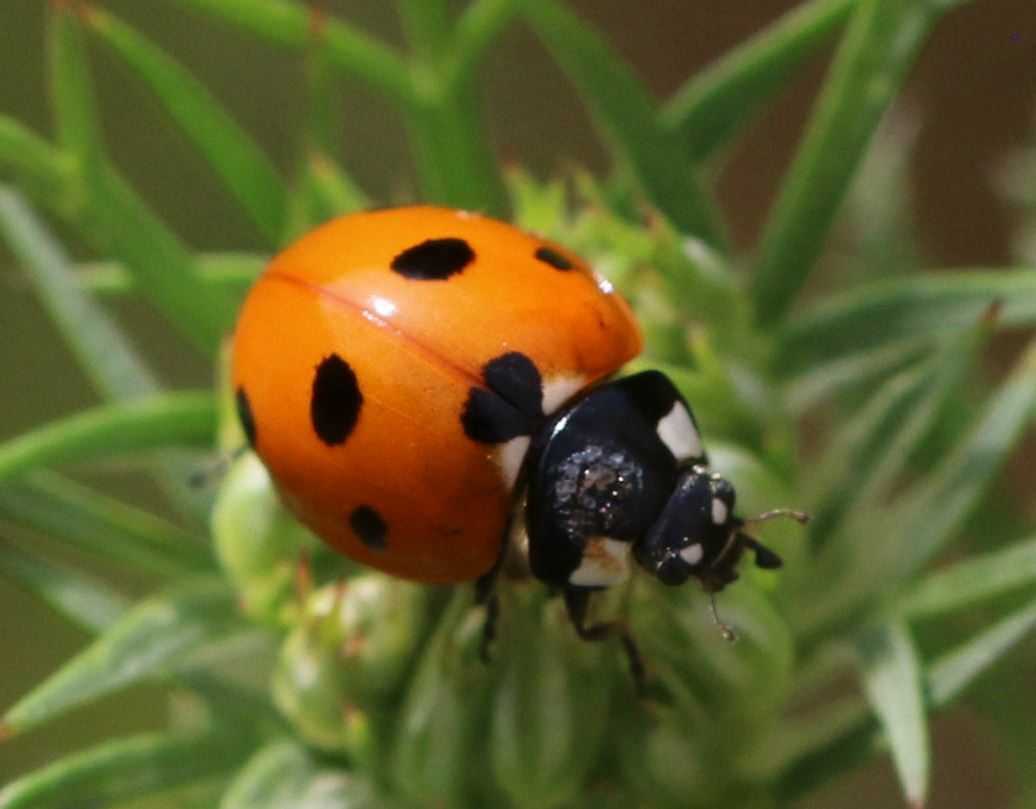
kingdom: Animalia
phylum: Arthropoda
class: Insecta
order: Coleoptera
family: Coccinellidae
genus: Coccinella
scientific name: Coccinella septempunctata
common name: Sevenspotted lady beetle
